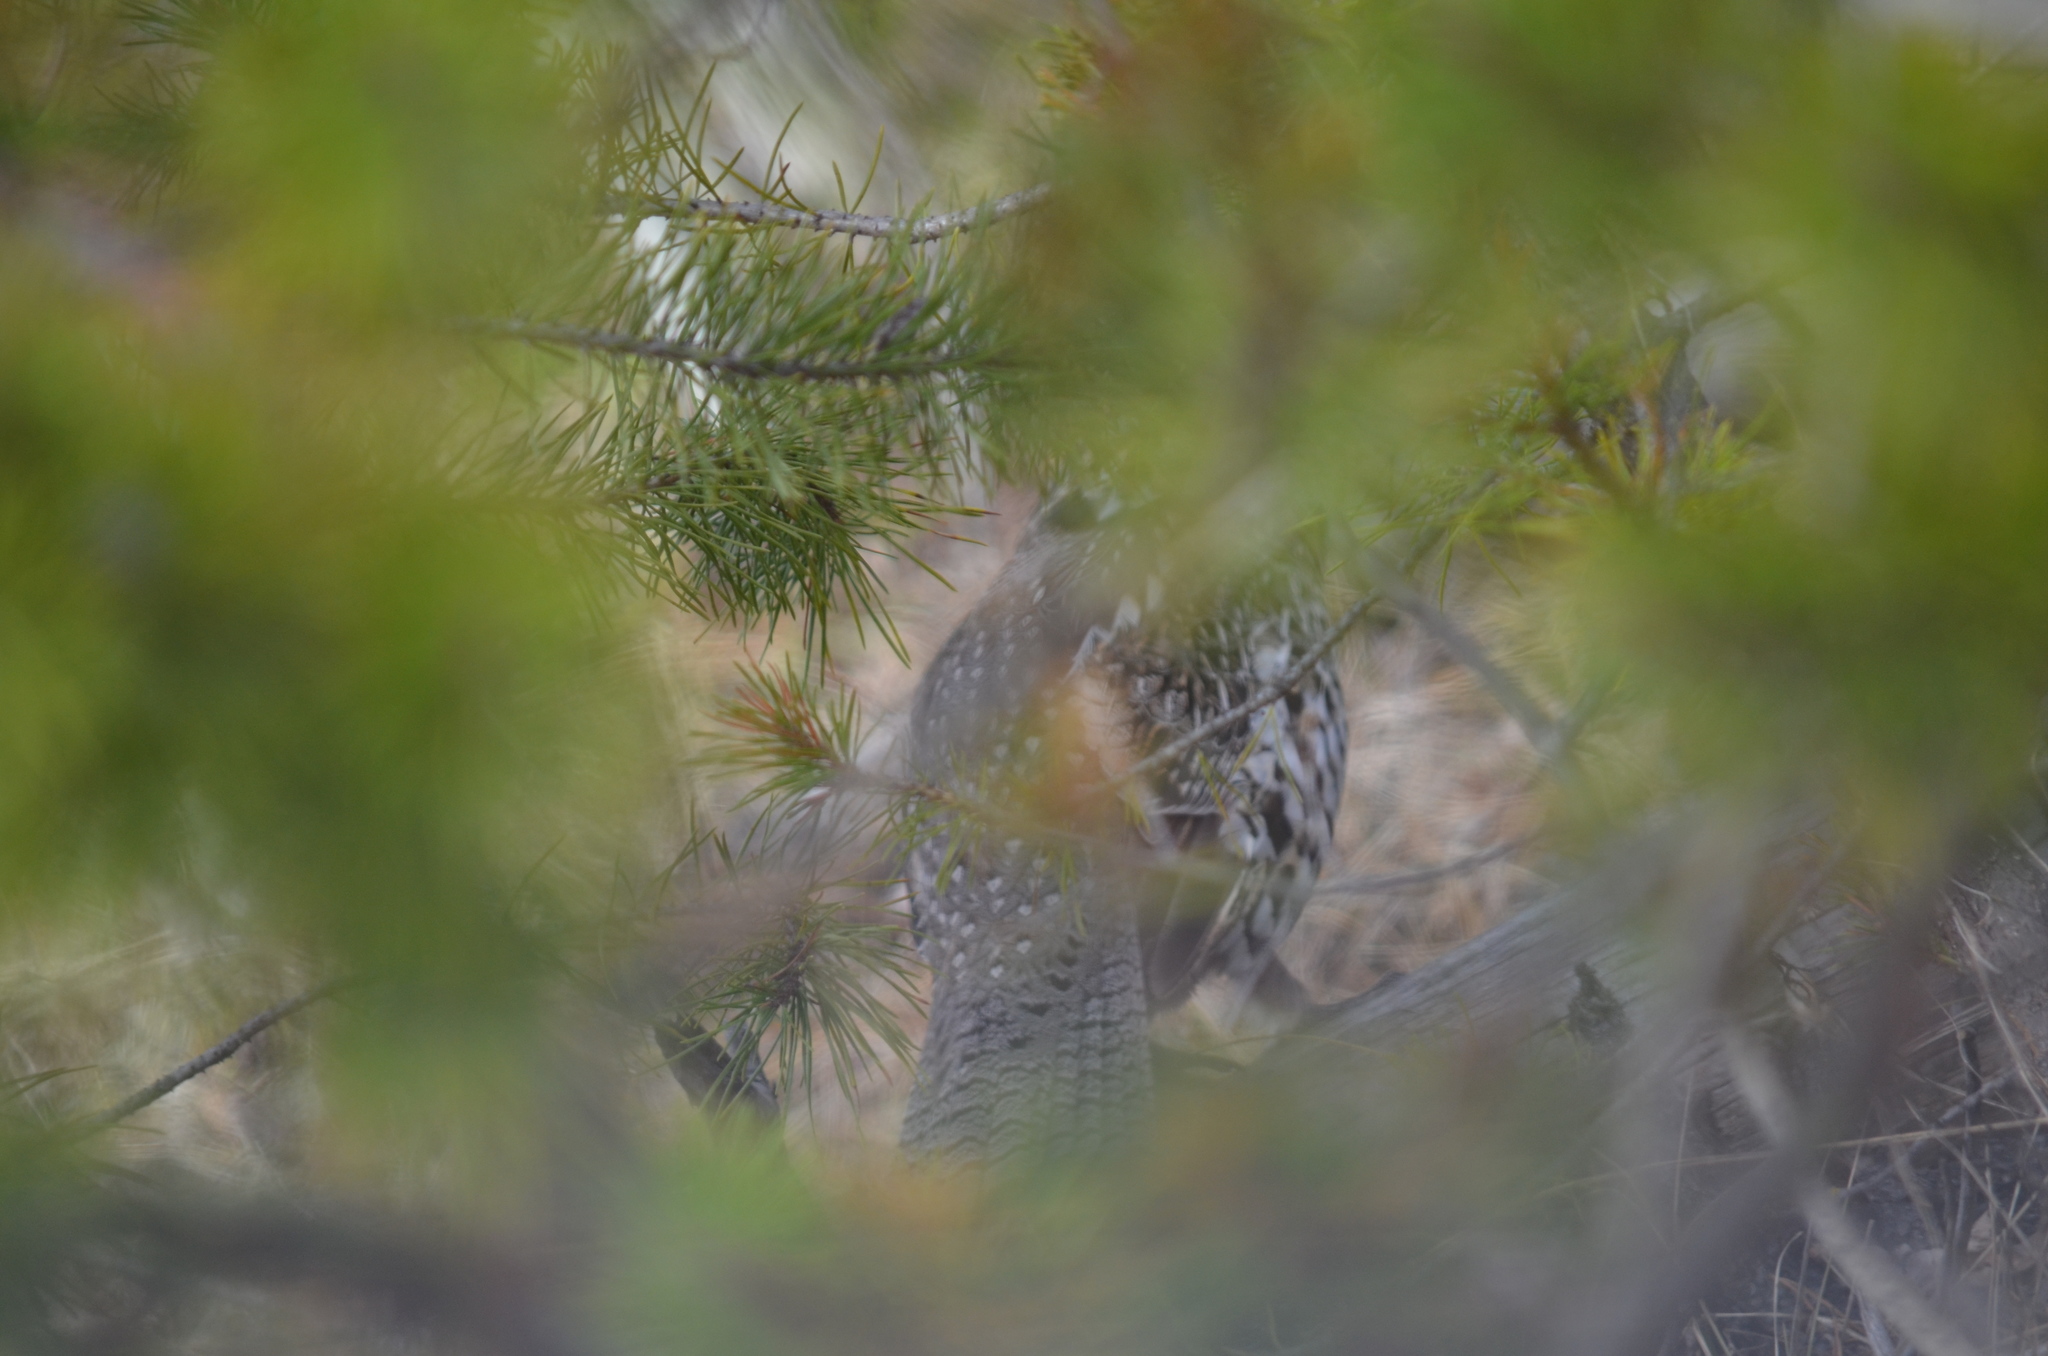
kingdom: Animalia
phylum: Chordata
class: Aves
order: Galliformes
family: Phasianidae
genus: Bonasa
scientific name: Bonasa umbellus
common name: Ruffed grouse
